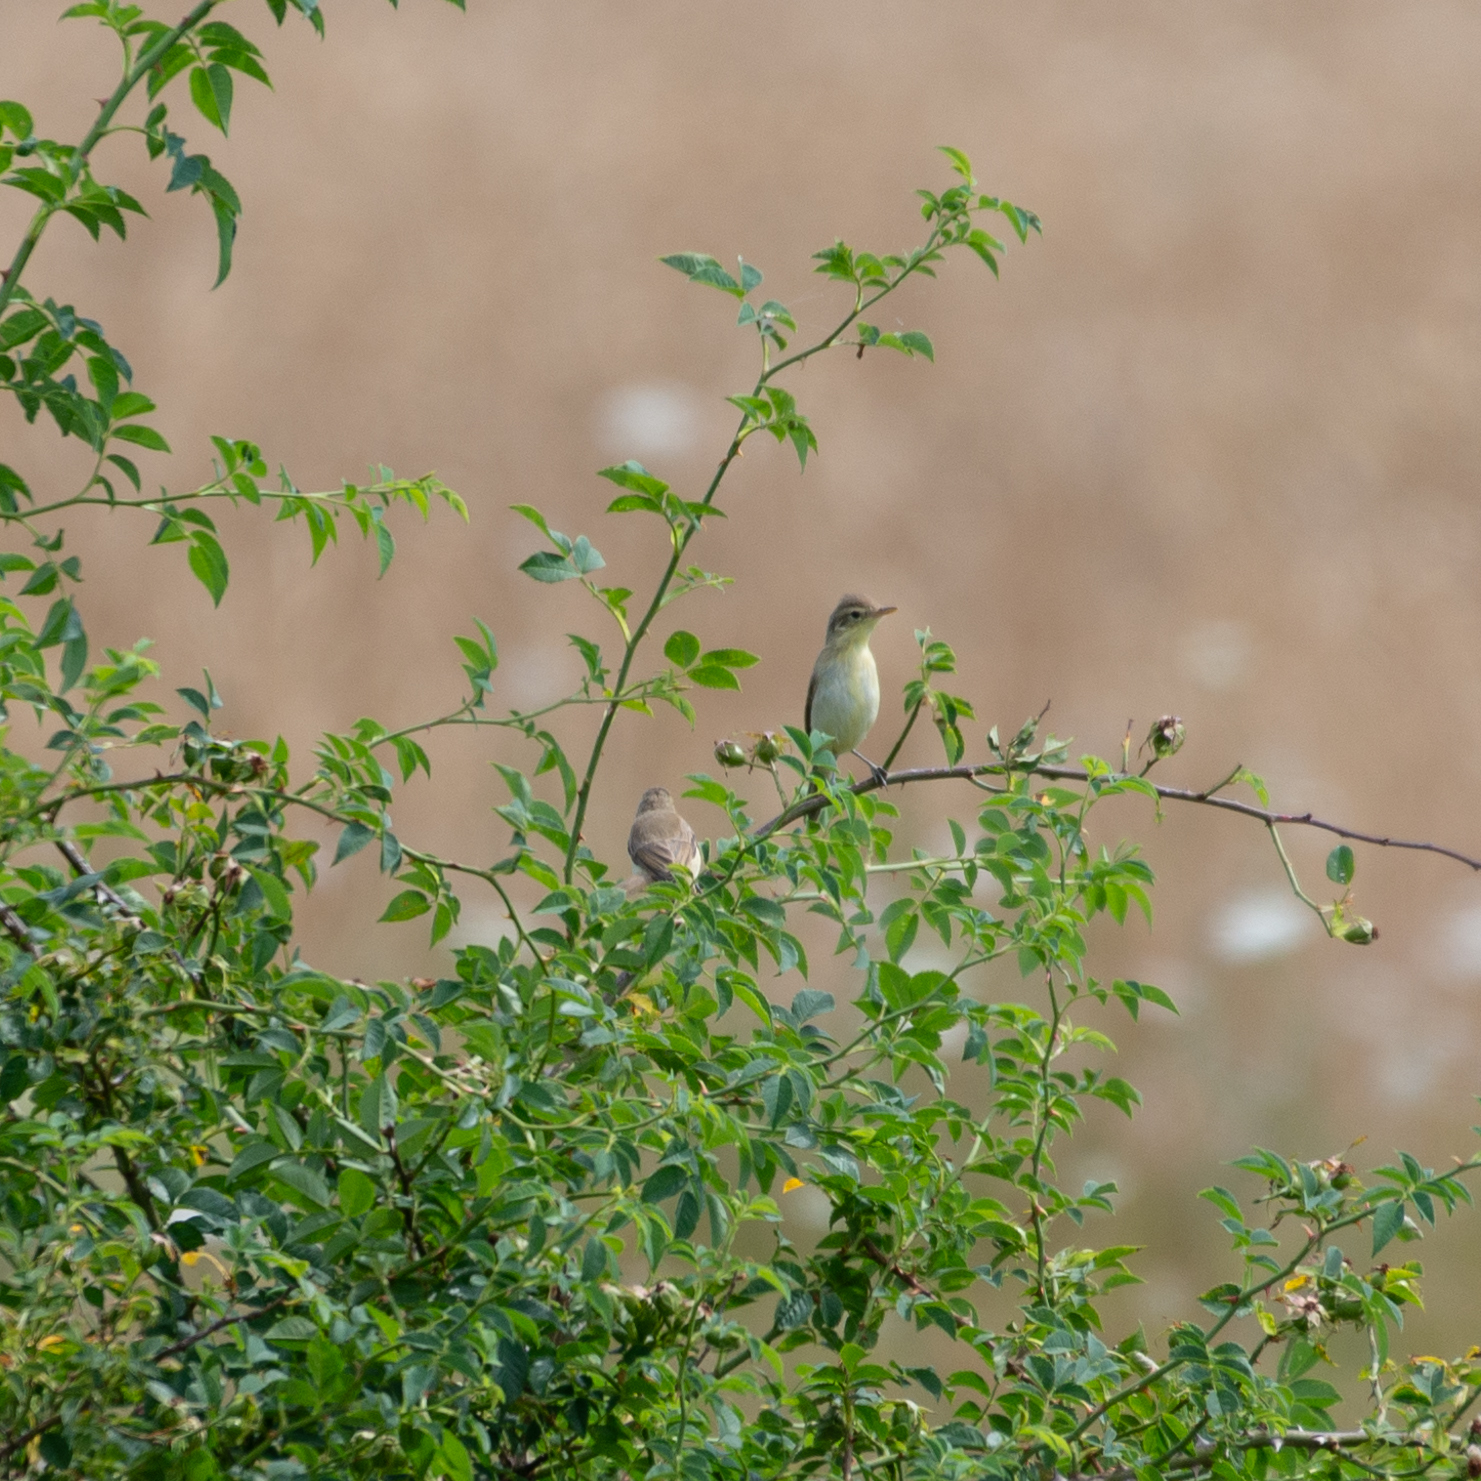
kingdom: Animalia
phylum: Chordata
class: Aves
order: Passeriformes
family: Acrocephalidae
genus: Hippolais
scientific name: Hippolais polyglotta
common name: Melodious warbler
